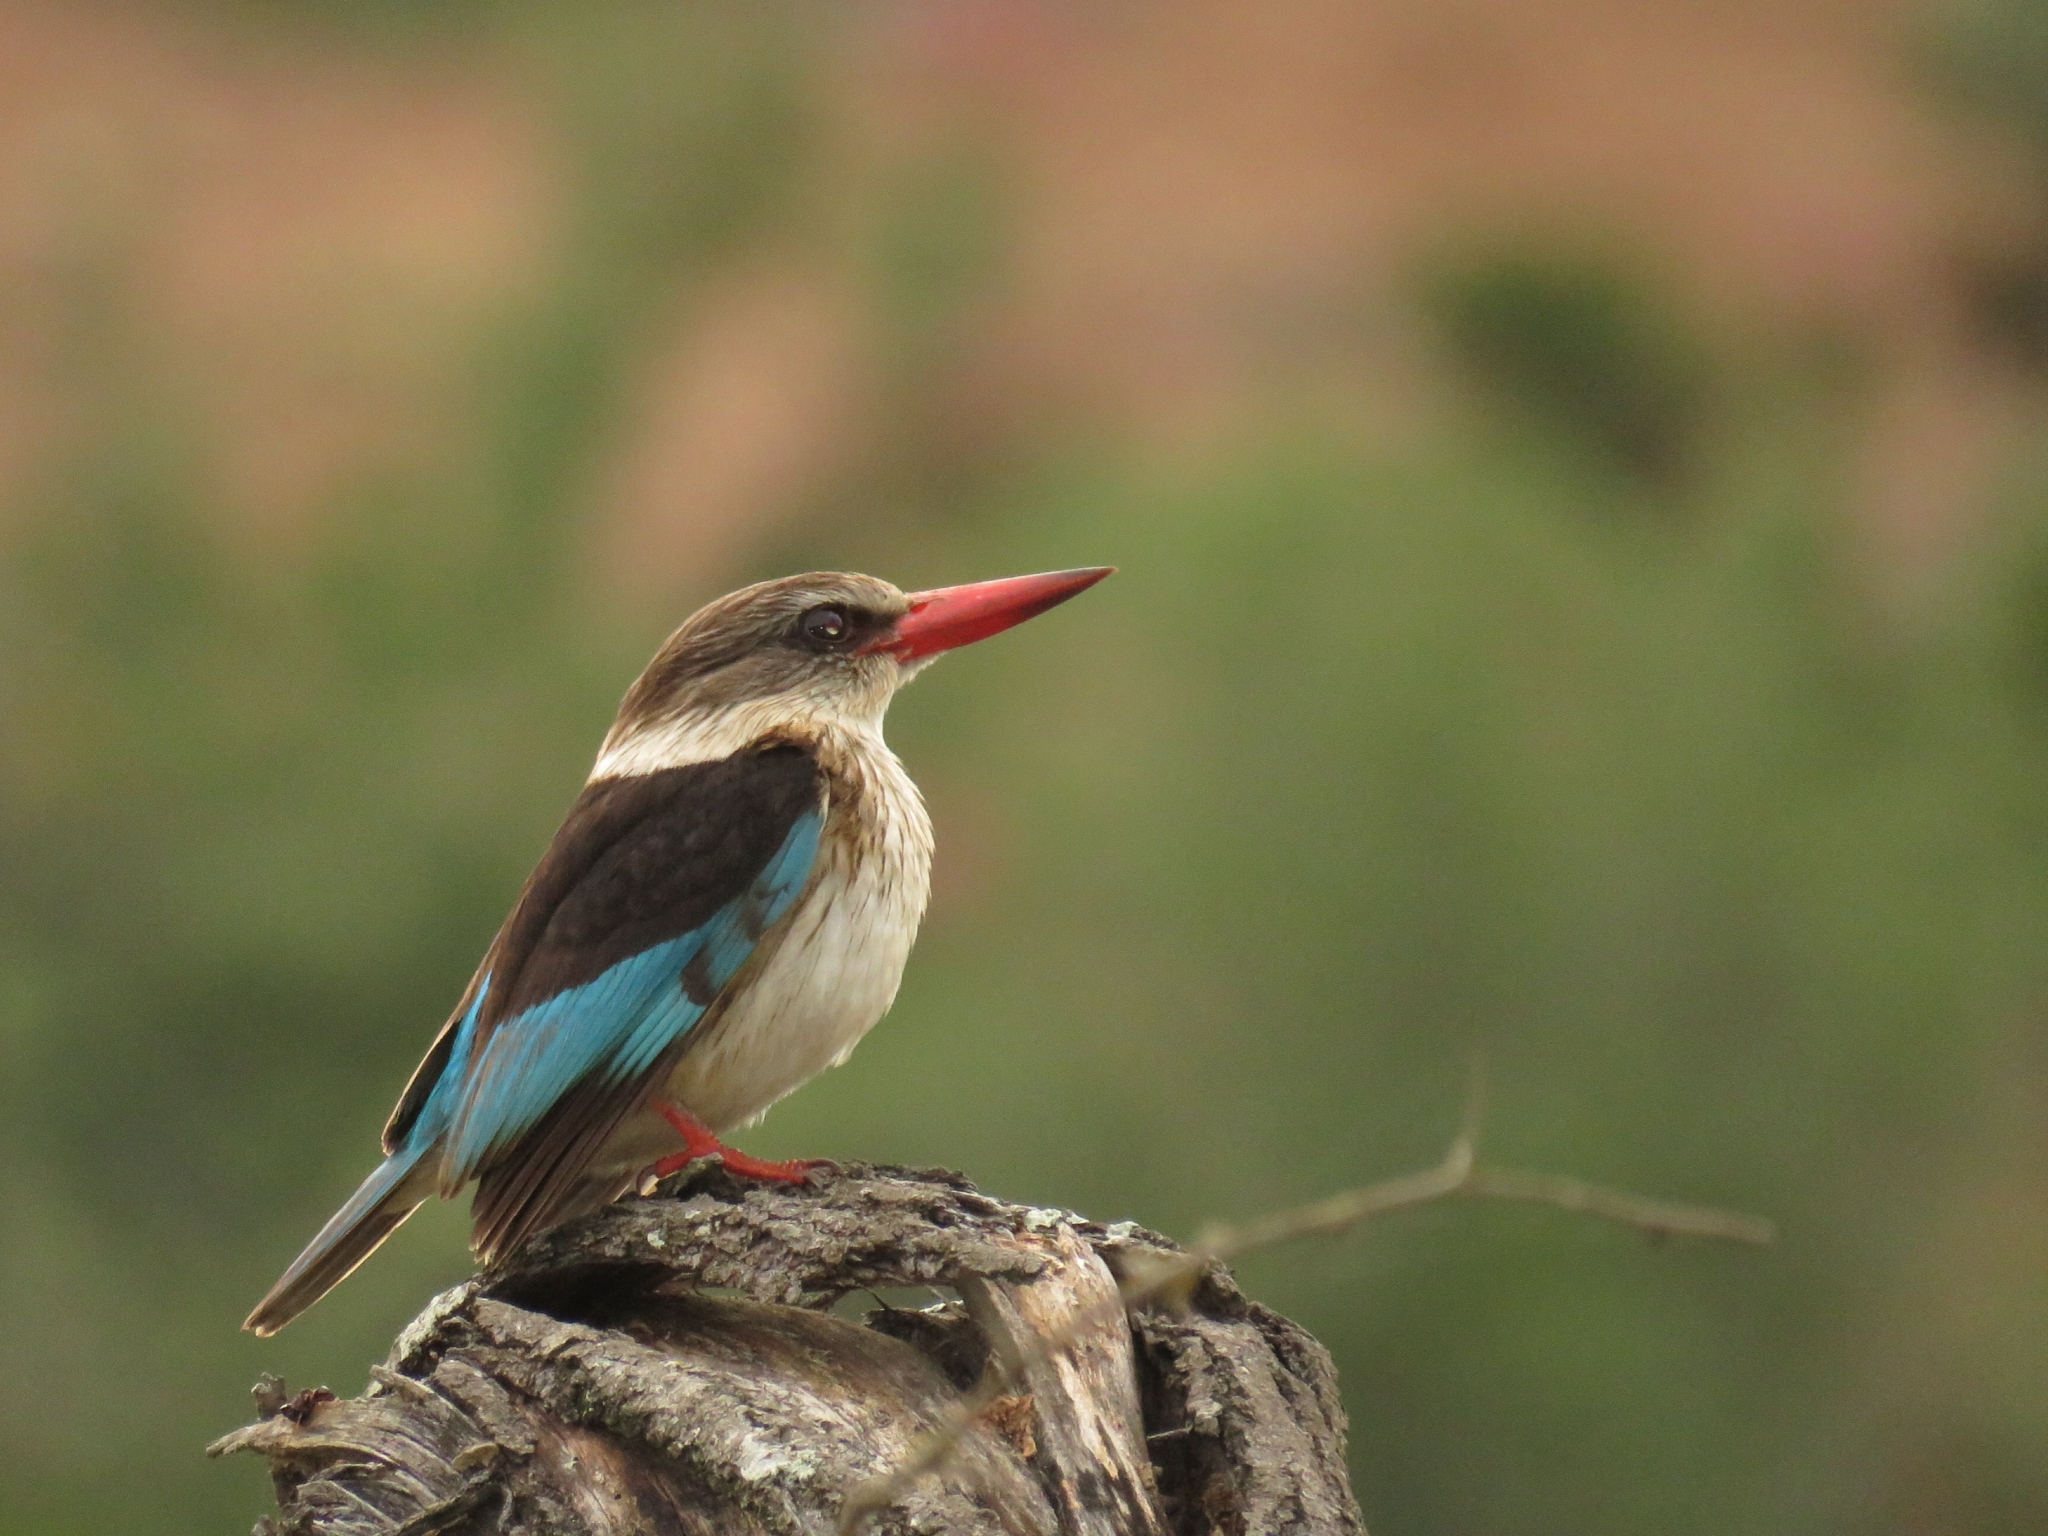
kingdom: Animalia
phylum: Chordata
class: Aves
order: Coraciiformes
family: Alcedinidae
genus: Halcyon
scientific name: Halcyon albiventris
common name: Brown-hooded kingfisher
